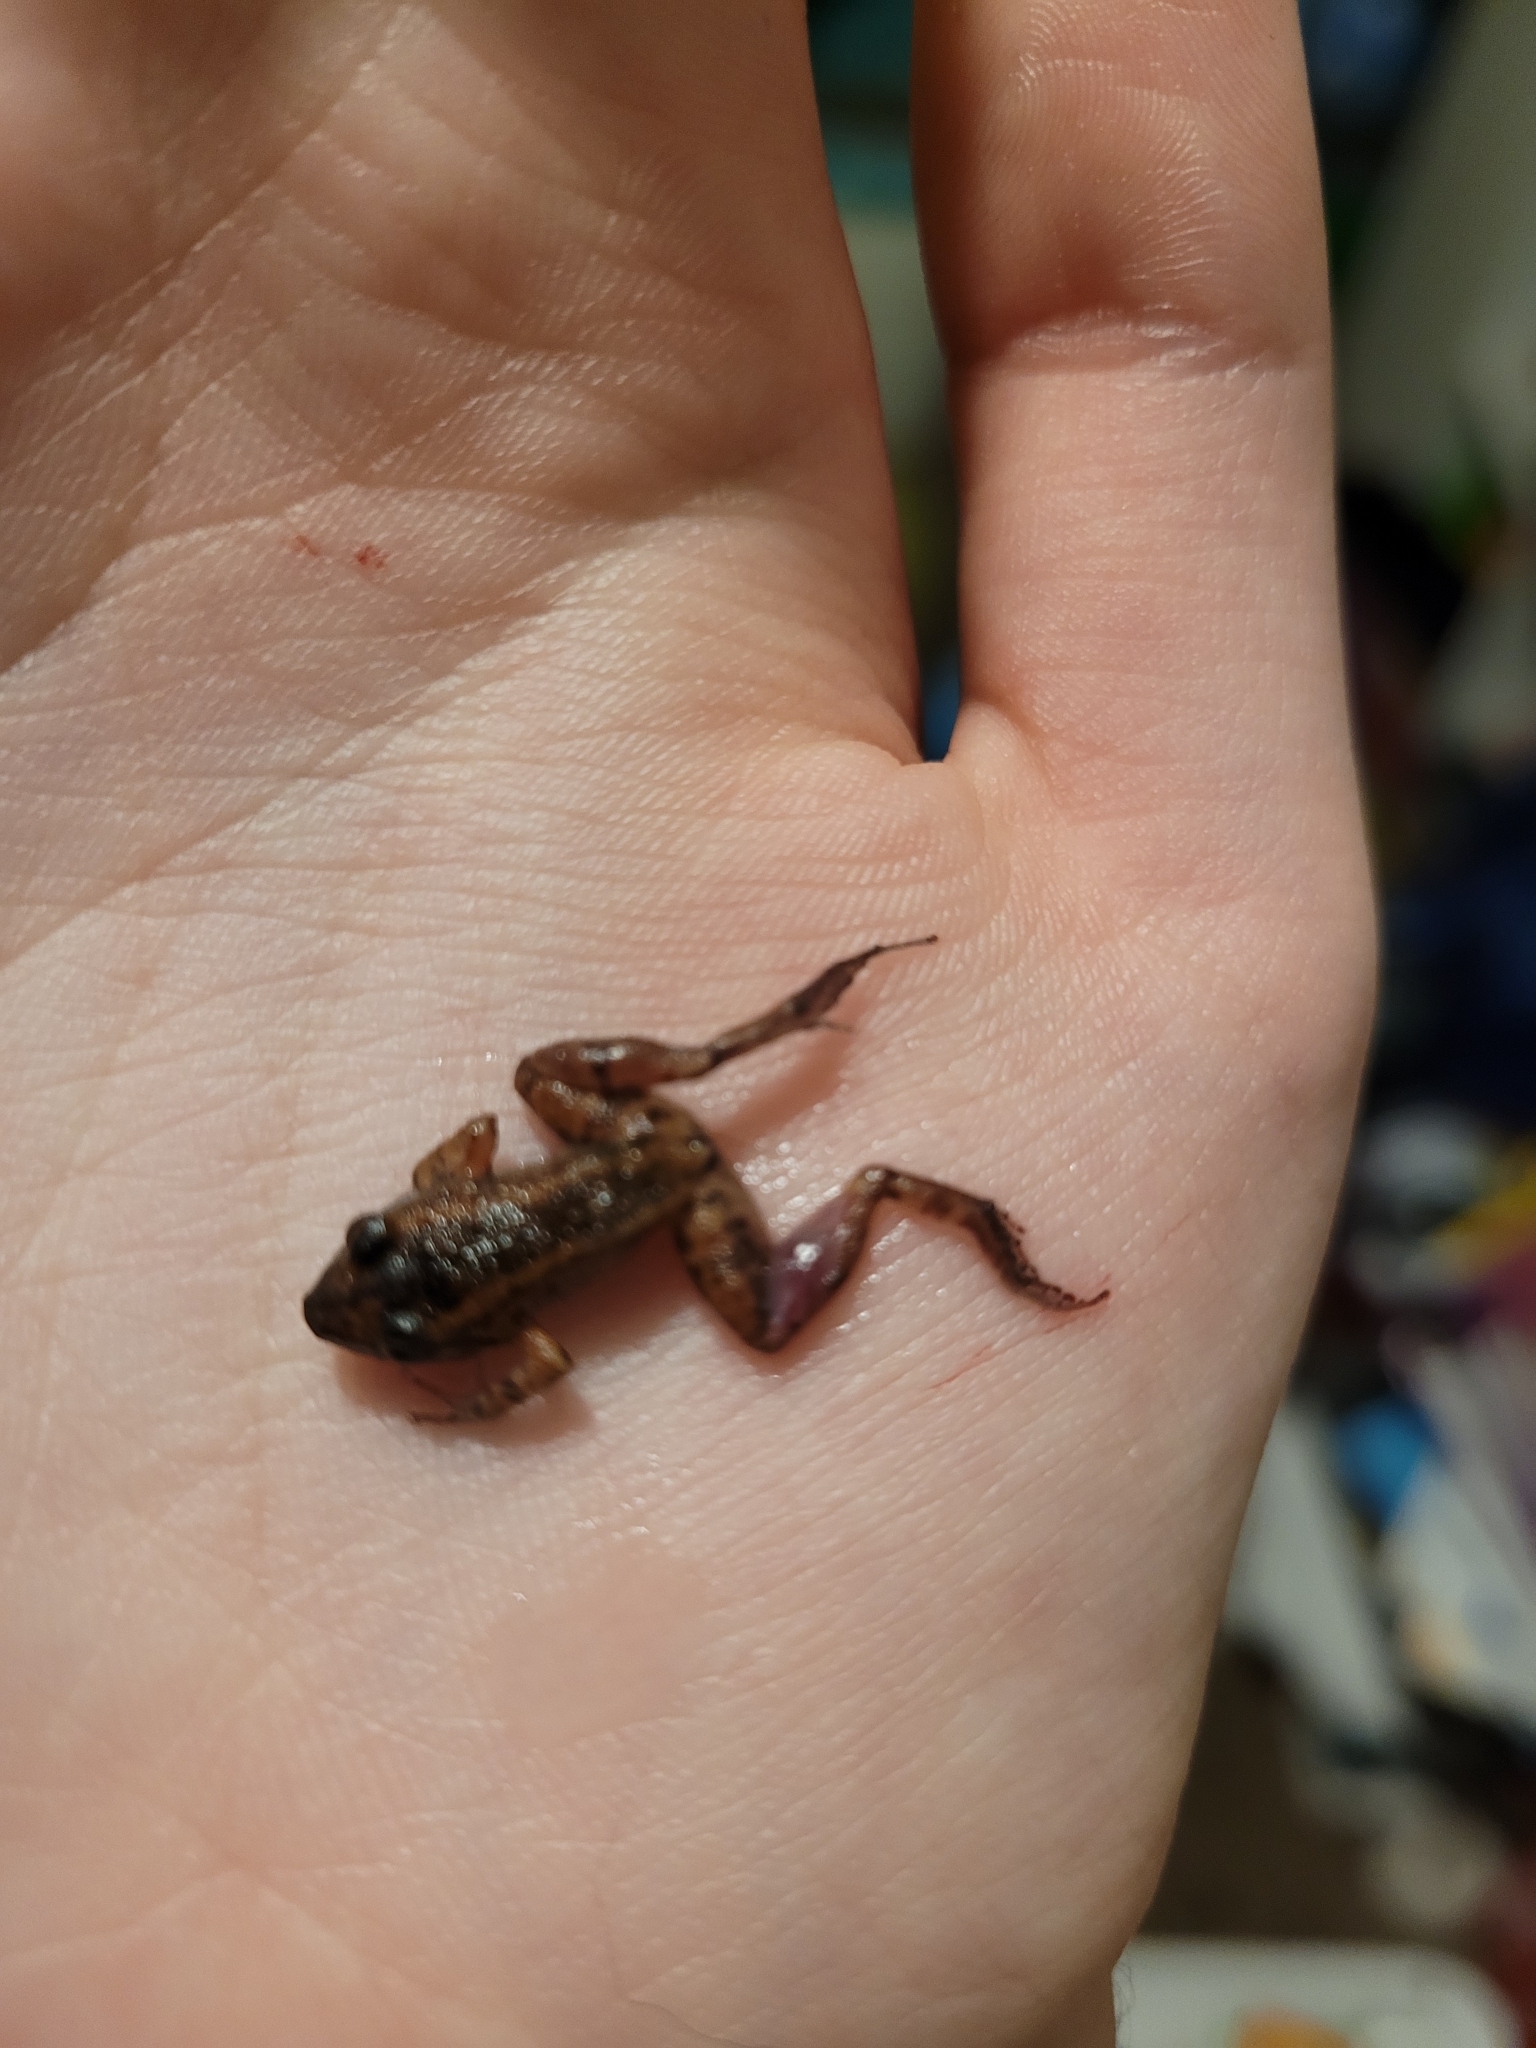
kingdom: Animalia
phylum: Chordata
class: Amphibia
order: Anura
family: Eleutherodactylidae
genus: Eleutherodactylus
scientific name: Eleutherodactylus planirostris
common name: Greenhouse frog
